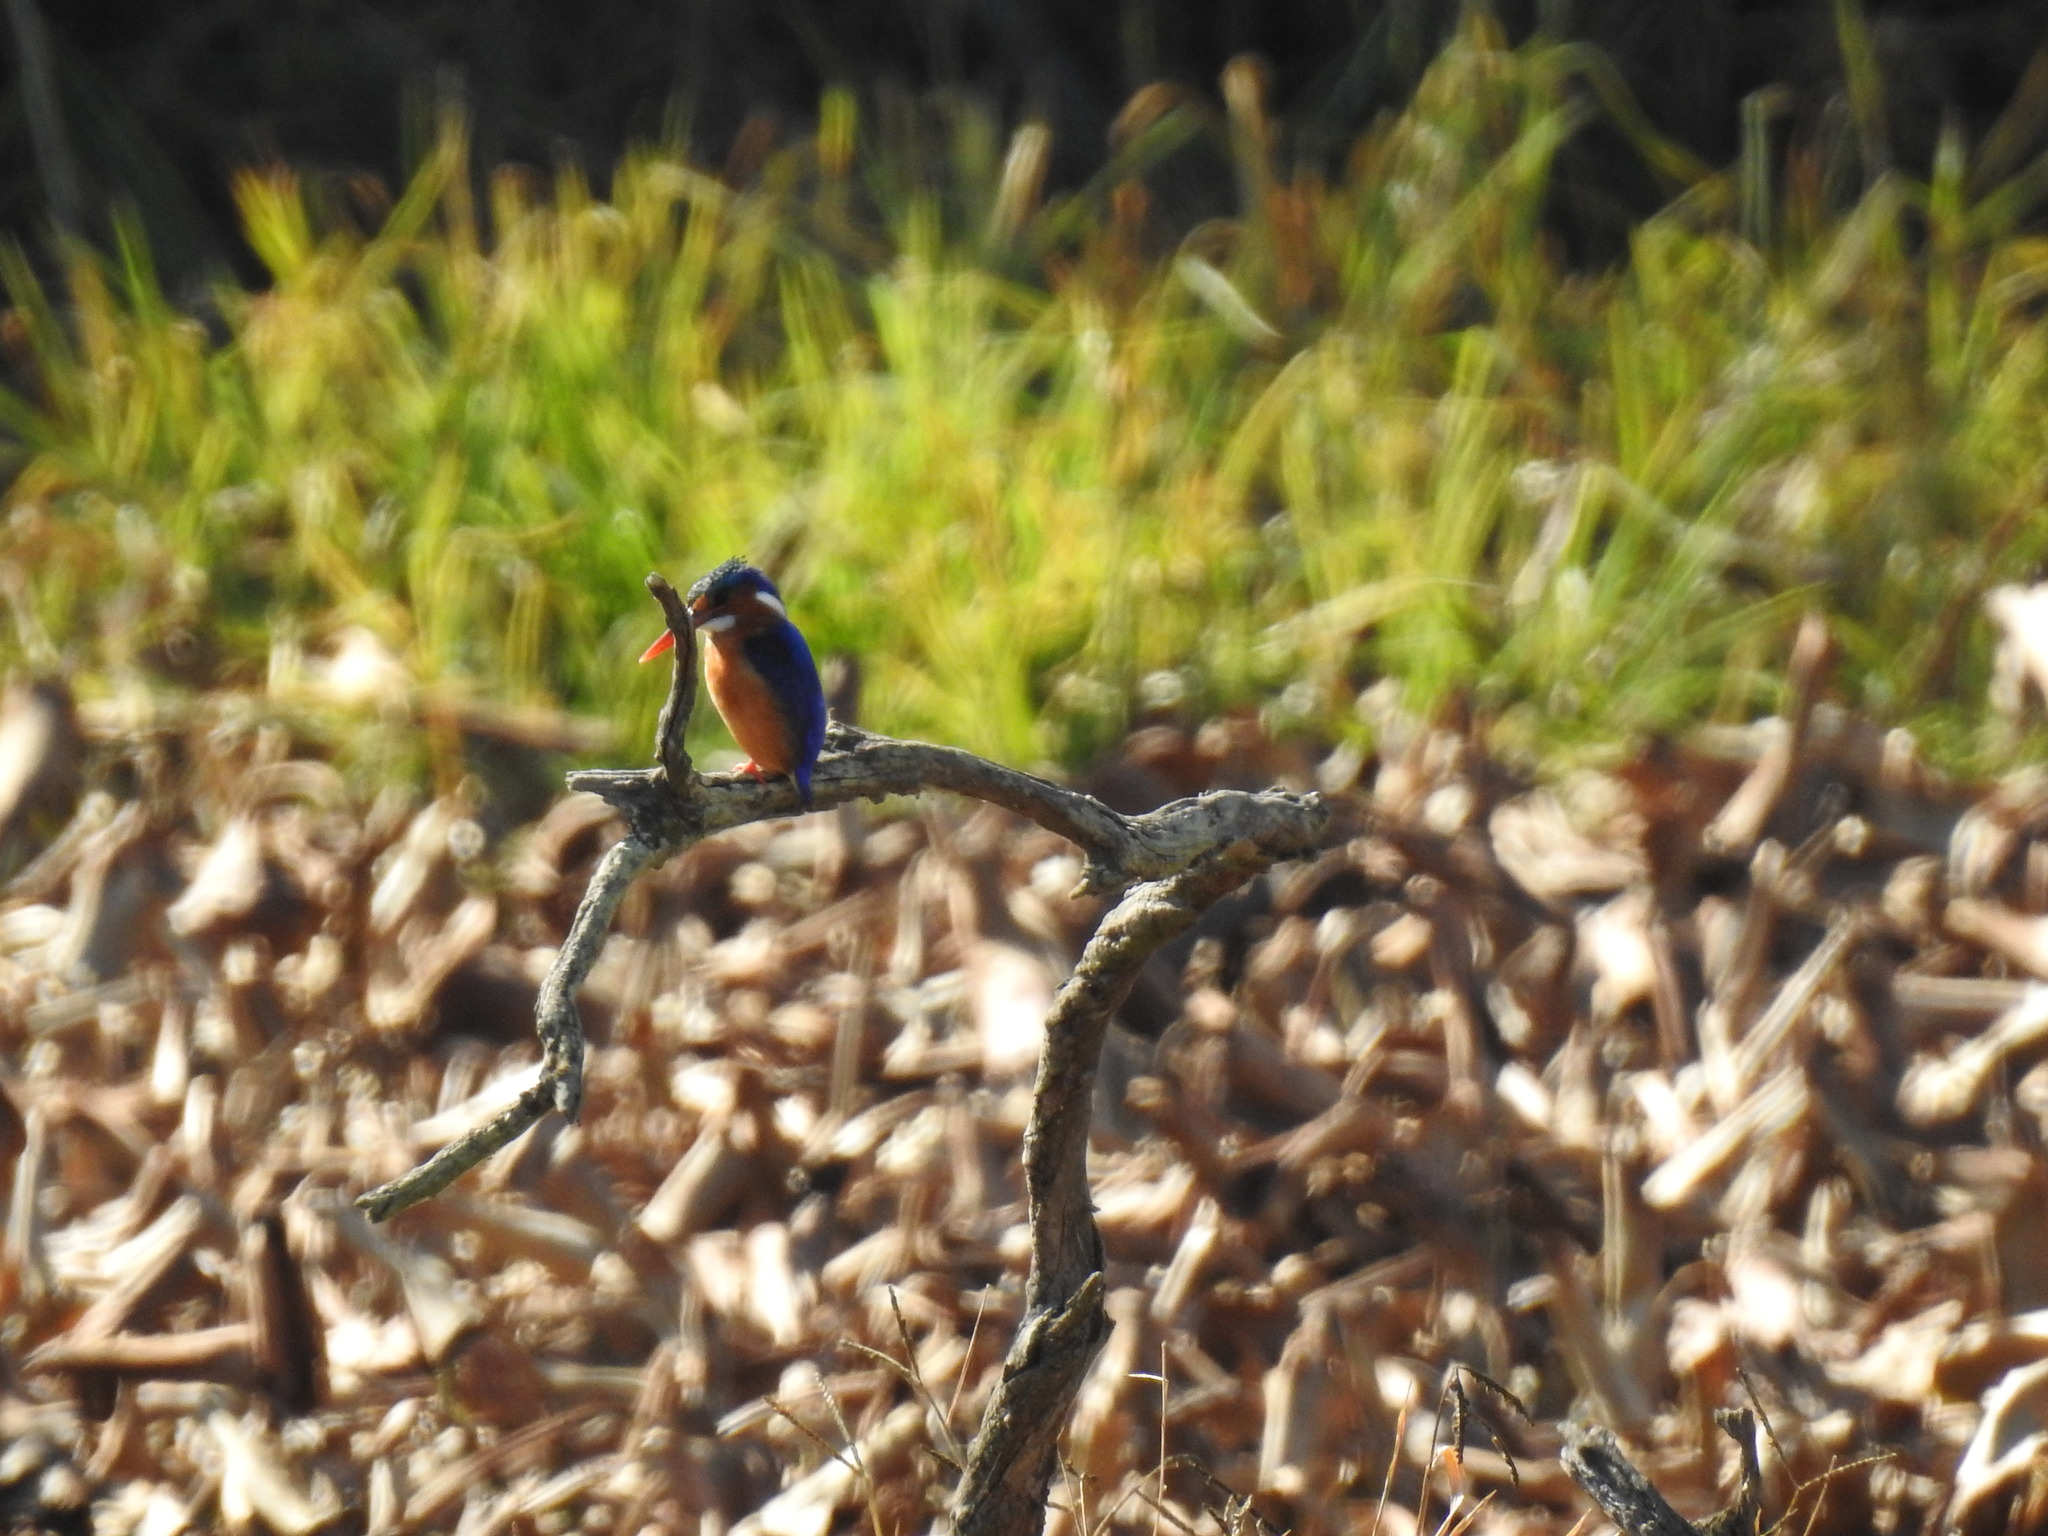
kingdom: Animalia
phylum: Chordata
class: Aves
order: Coraciiformes
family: Alcedinidae
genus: Corythornis
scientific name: Corythornis cristatus
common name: Malachite kingfisher
